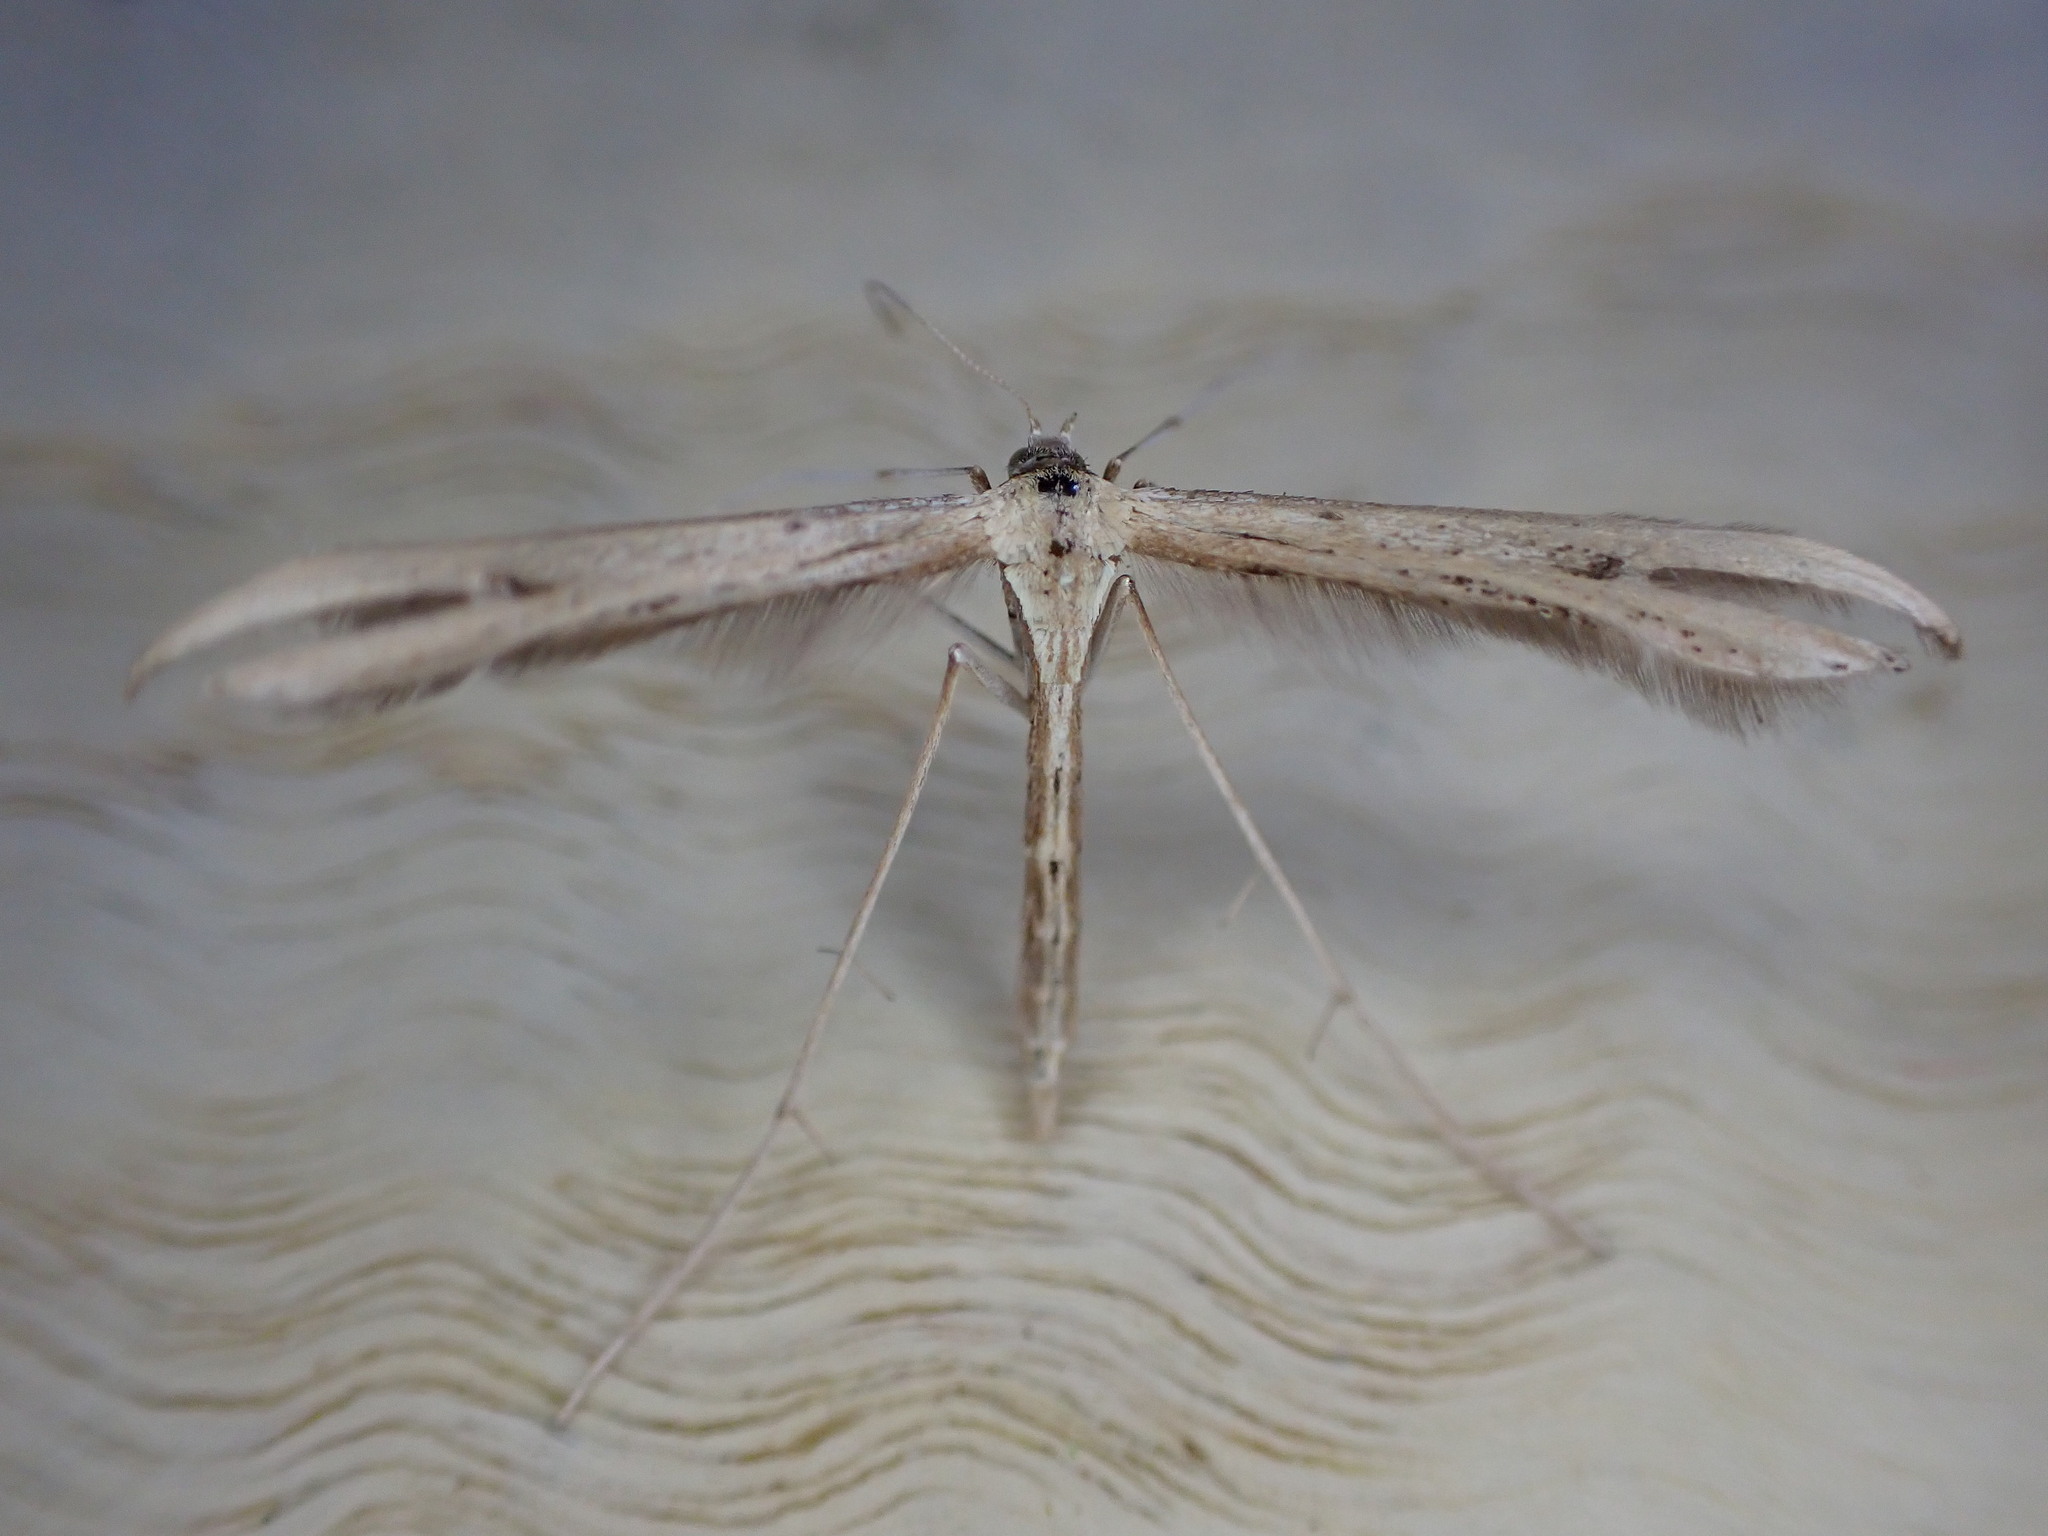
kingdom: Animalia
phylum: Arthropoda
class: Insecta
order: Lepidoptera
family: Pterophoridae
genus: Emmelina
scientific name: Emmelina monodactyla
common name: Common plume
